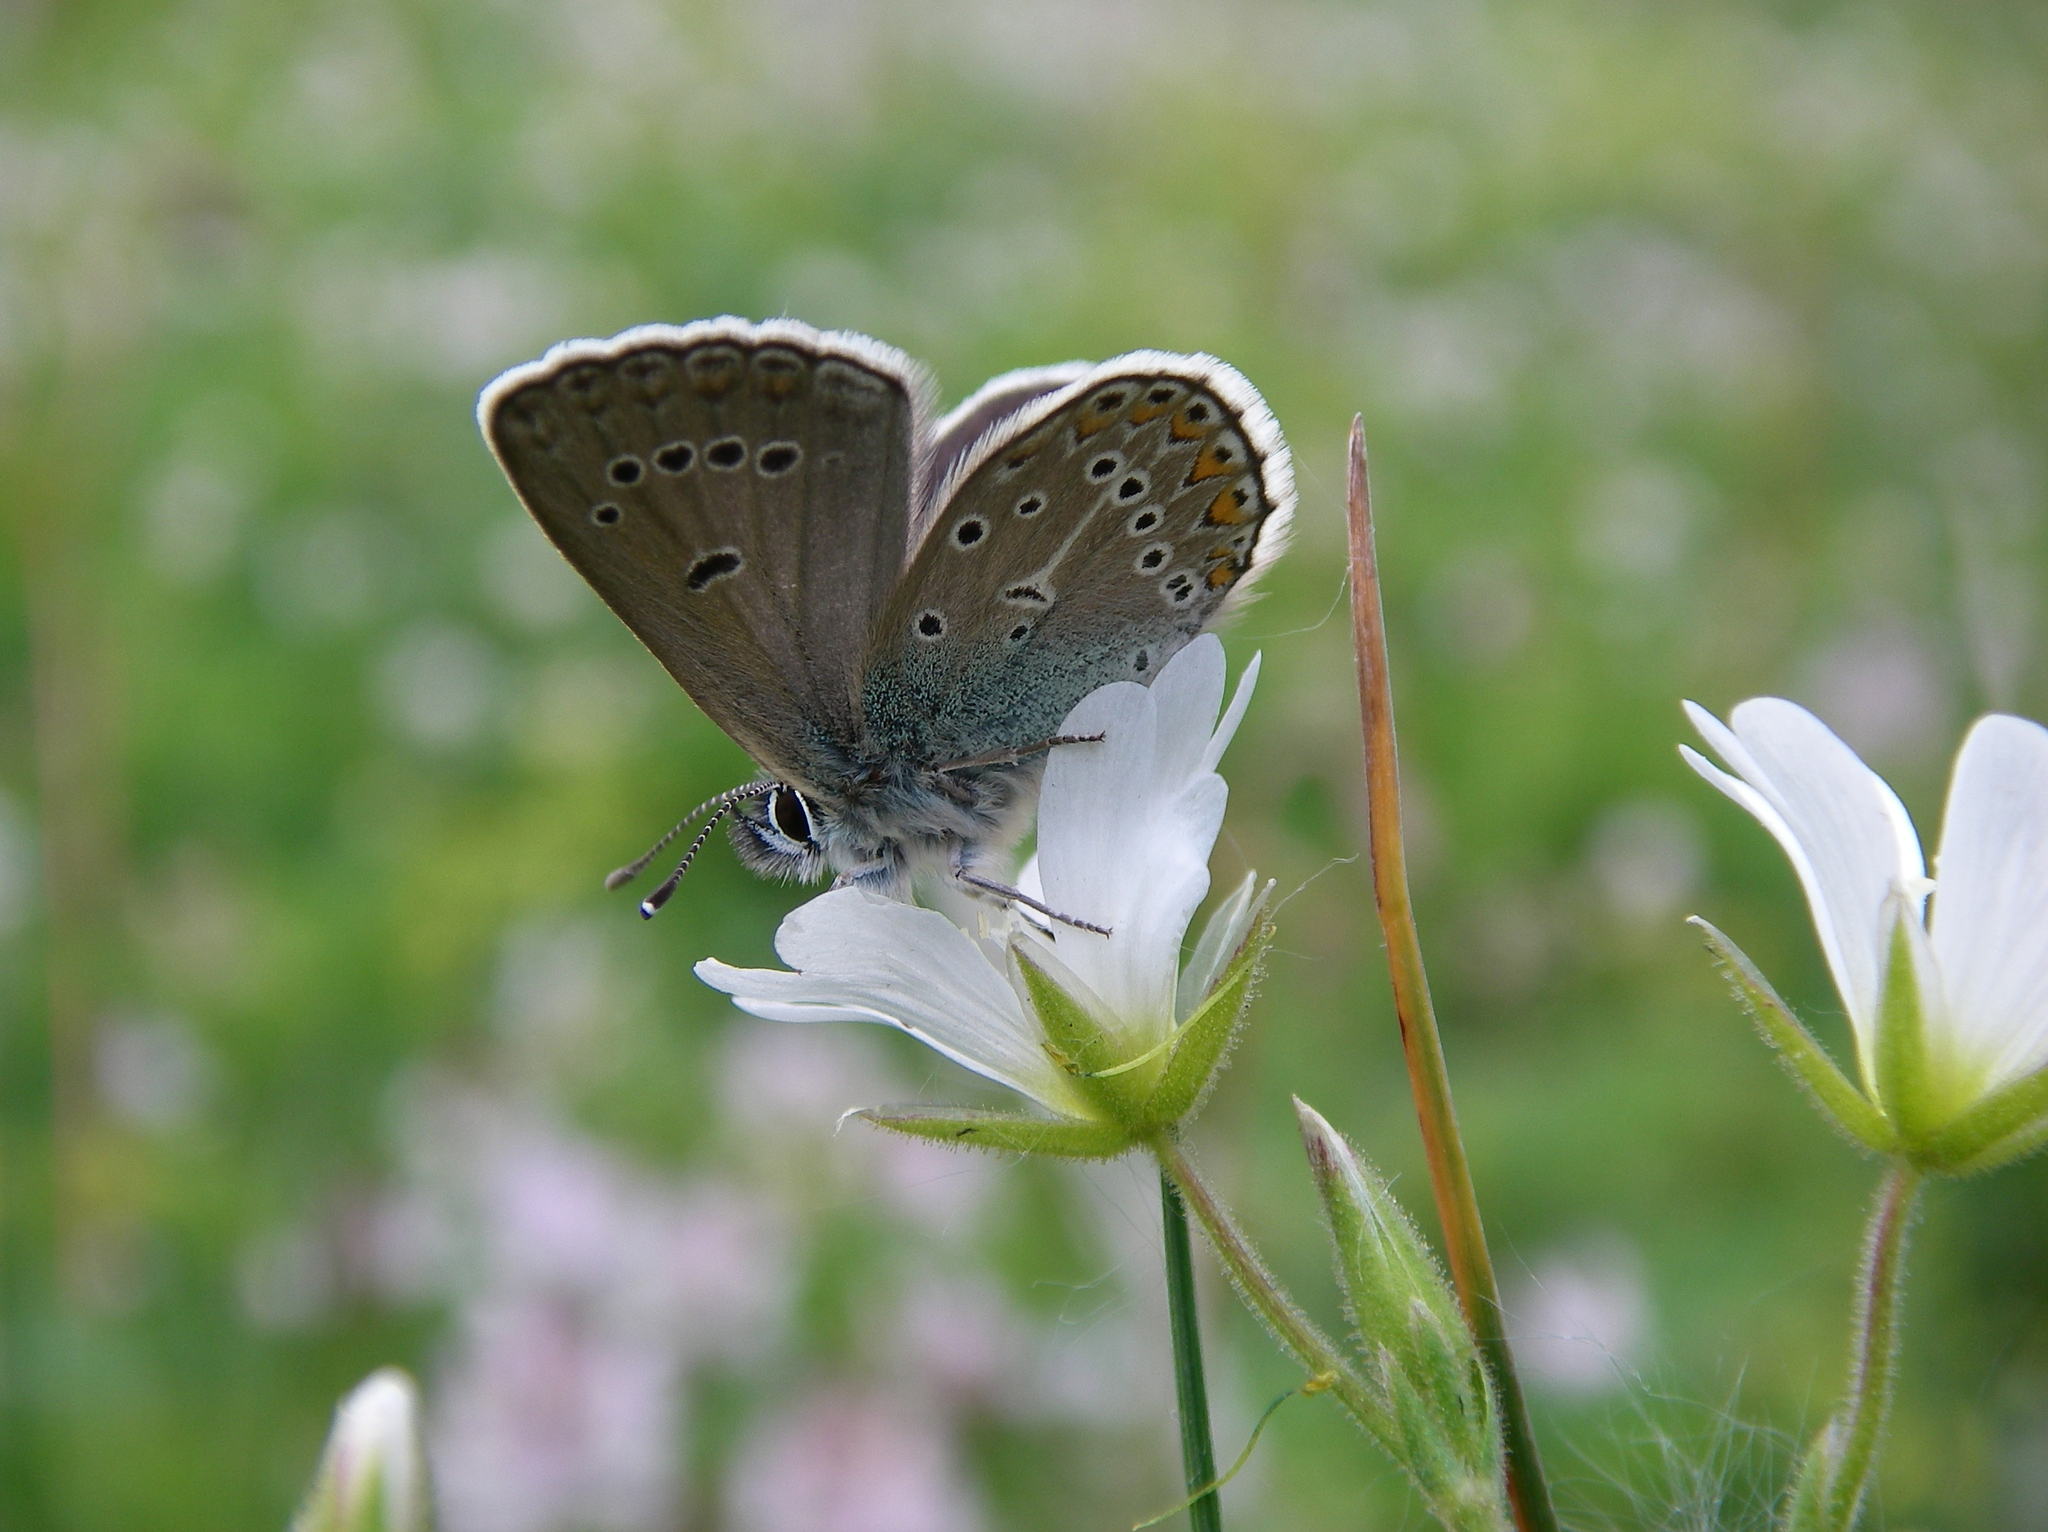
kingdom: Animalia
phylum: Arthropoda
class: Insecta
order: Lepidoptera
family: Lycaenidae
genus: Eumedonia
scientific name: Eumedonia eumedon
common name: Geranium argus
